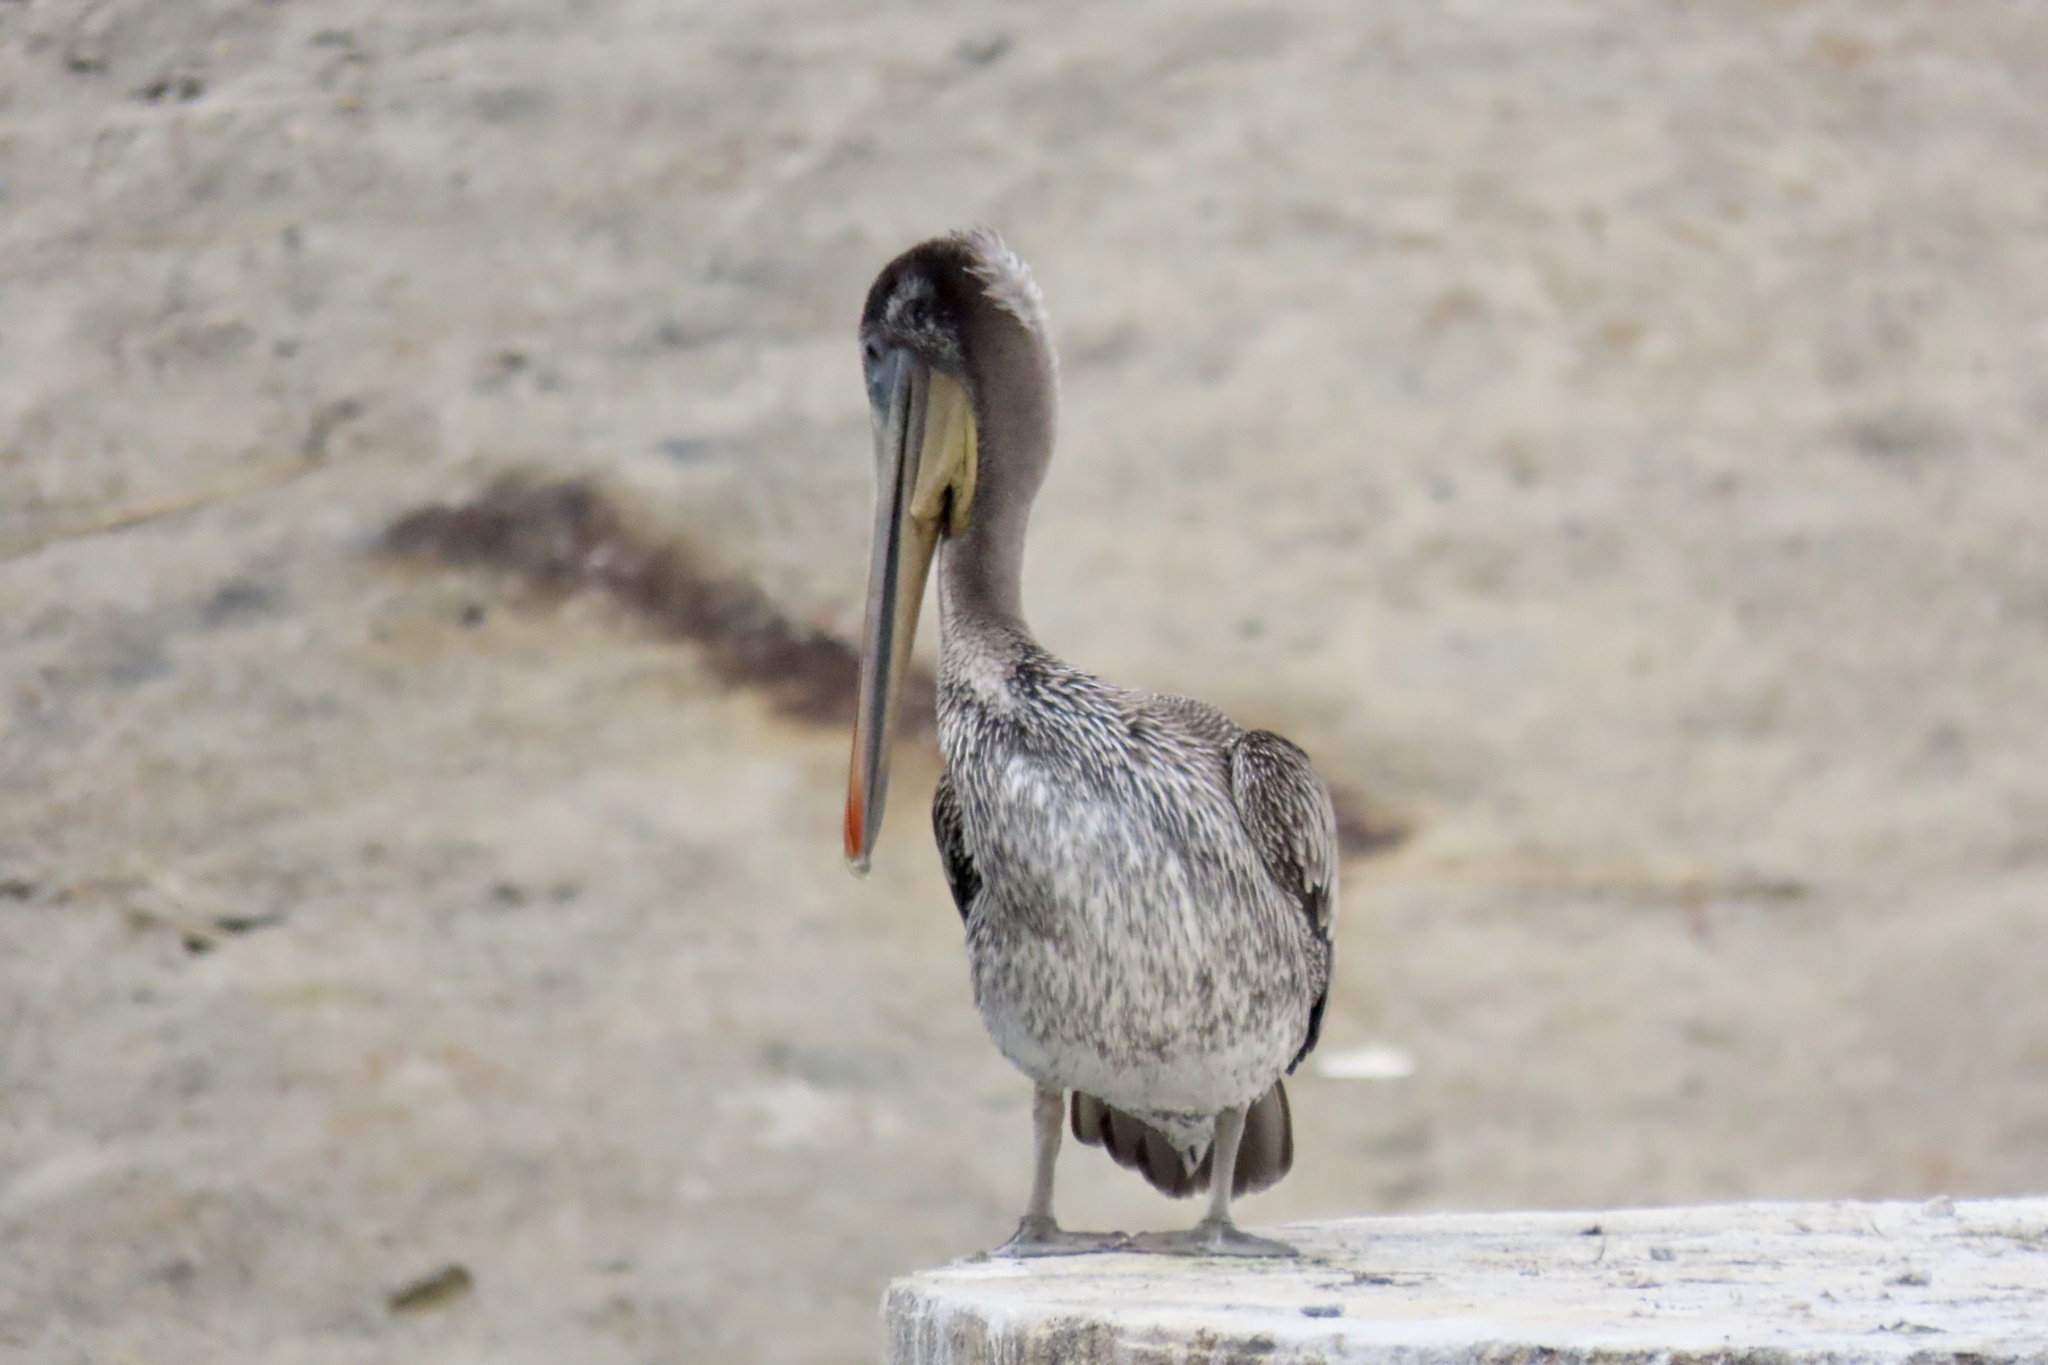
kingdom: Animalia
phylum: Chordata
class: Aves
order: Pelecaniformes
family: Pelecanidae
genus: Pelecanus
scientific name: Pelecanus occidentalis
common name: Brown pelican
